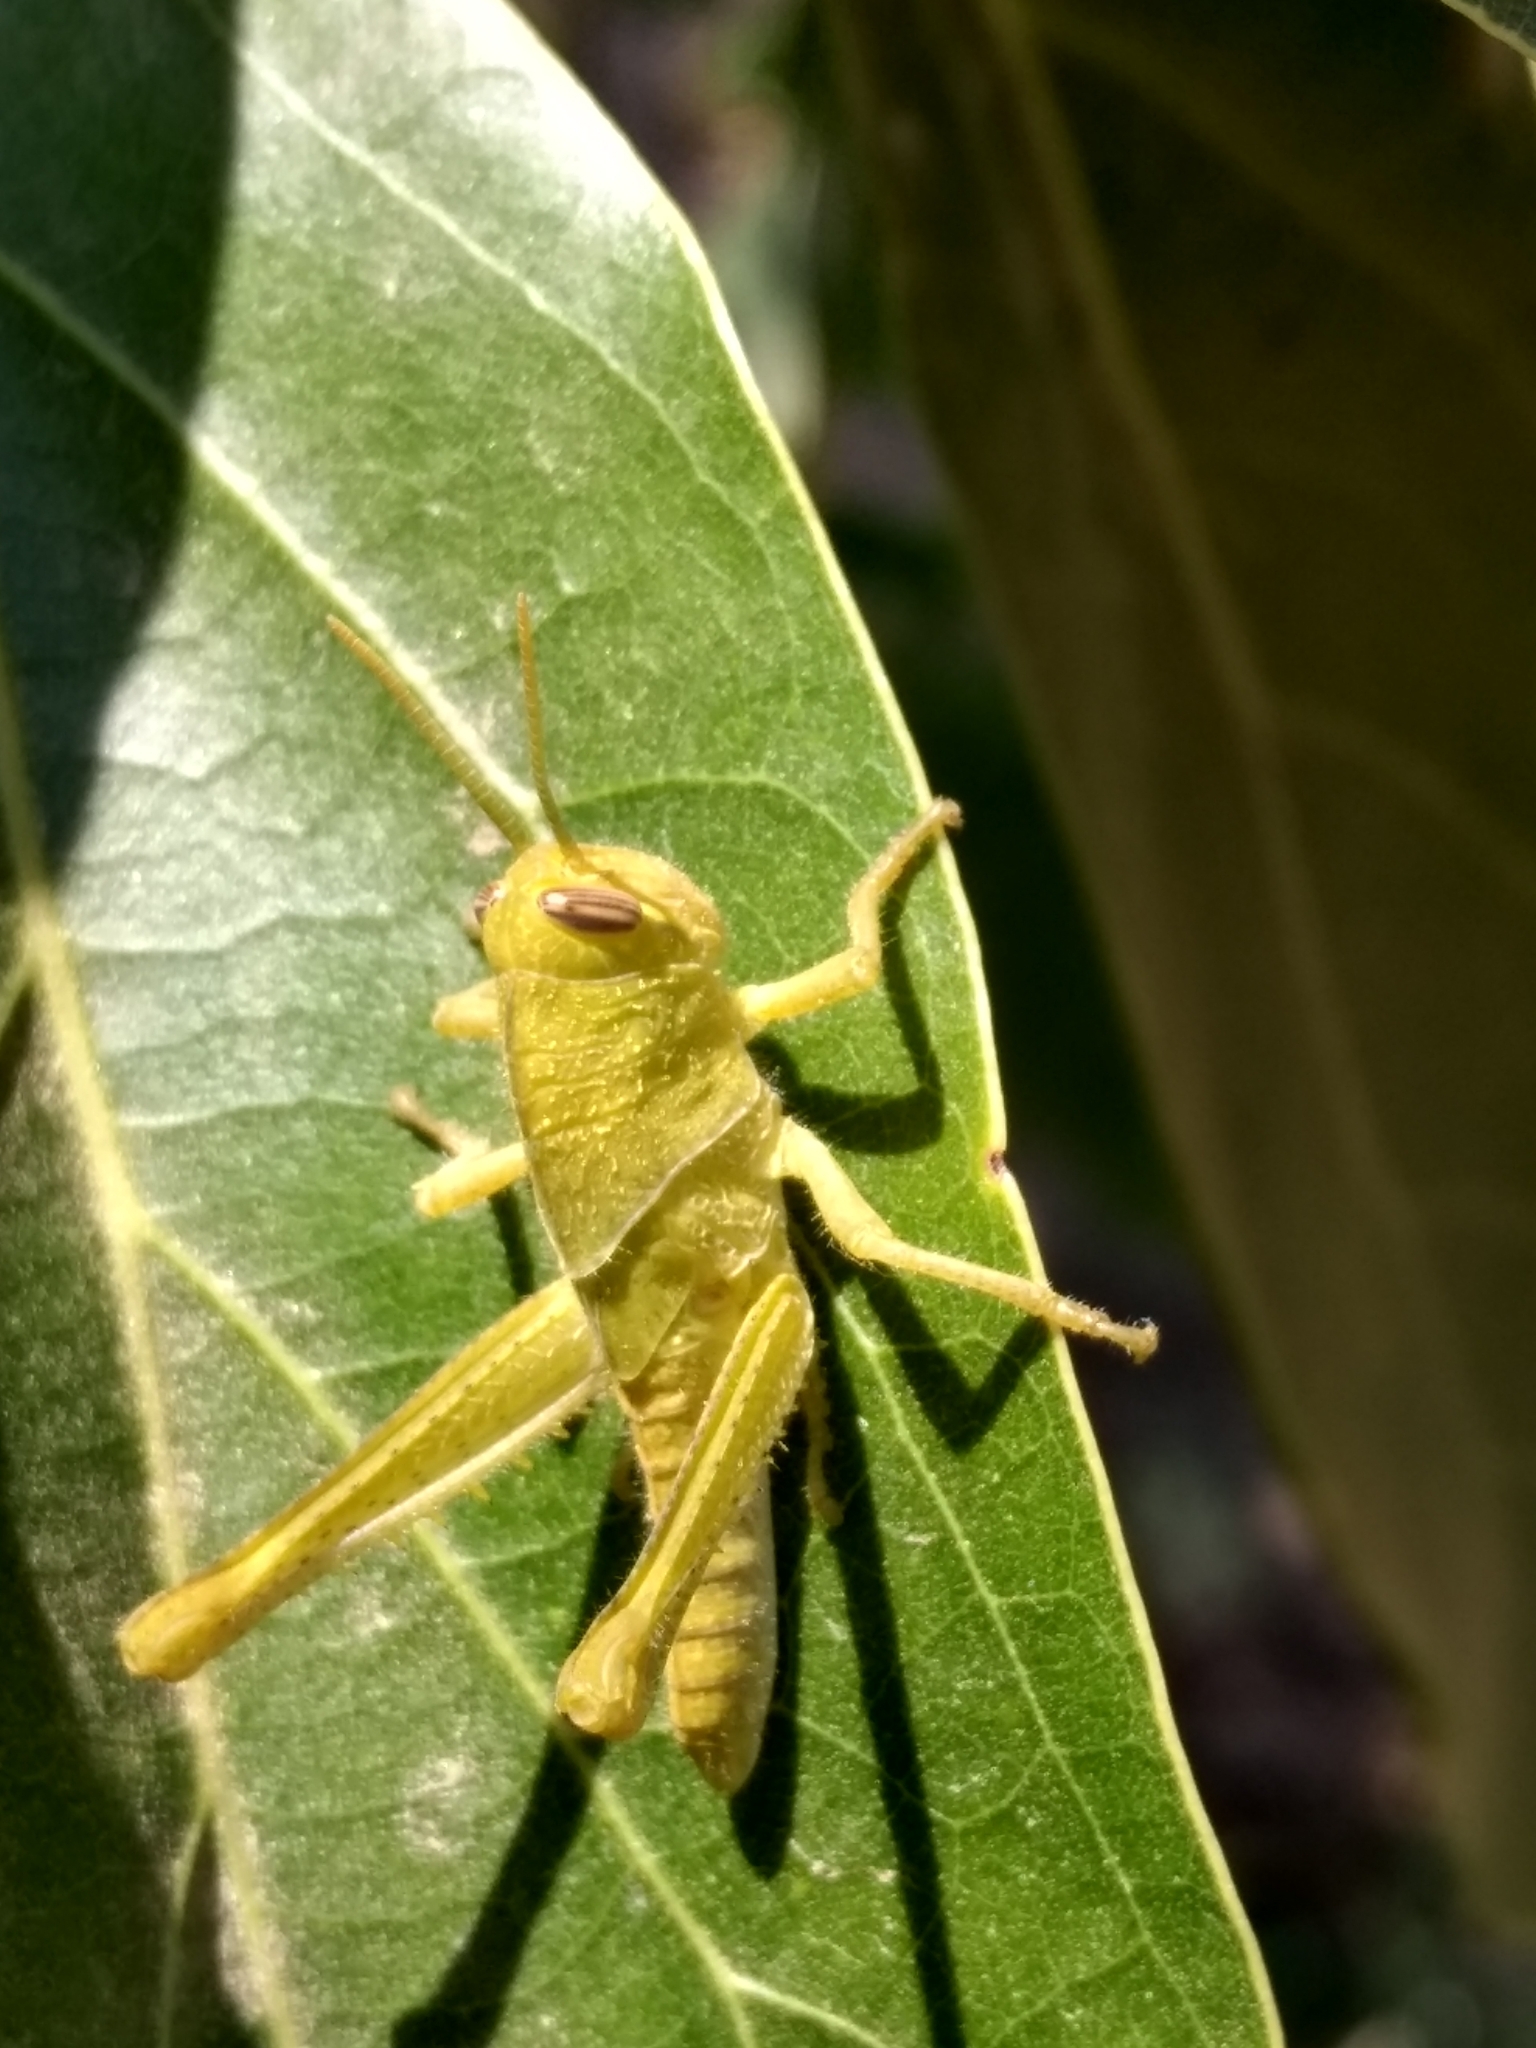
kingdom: Animalia
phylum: Arthropoda
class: Insecta
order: Orthoptera
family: Acrididae
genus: Schistocerca
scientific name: Schistocerca nitens
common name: Vagrant grasshopper
